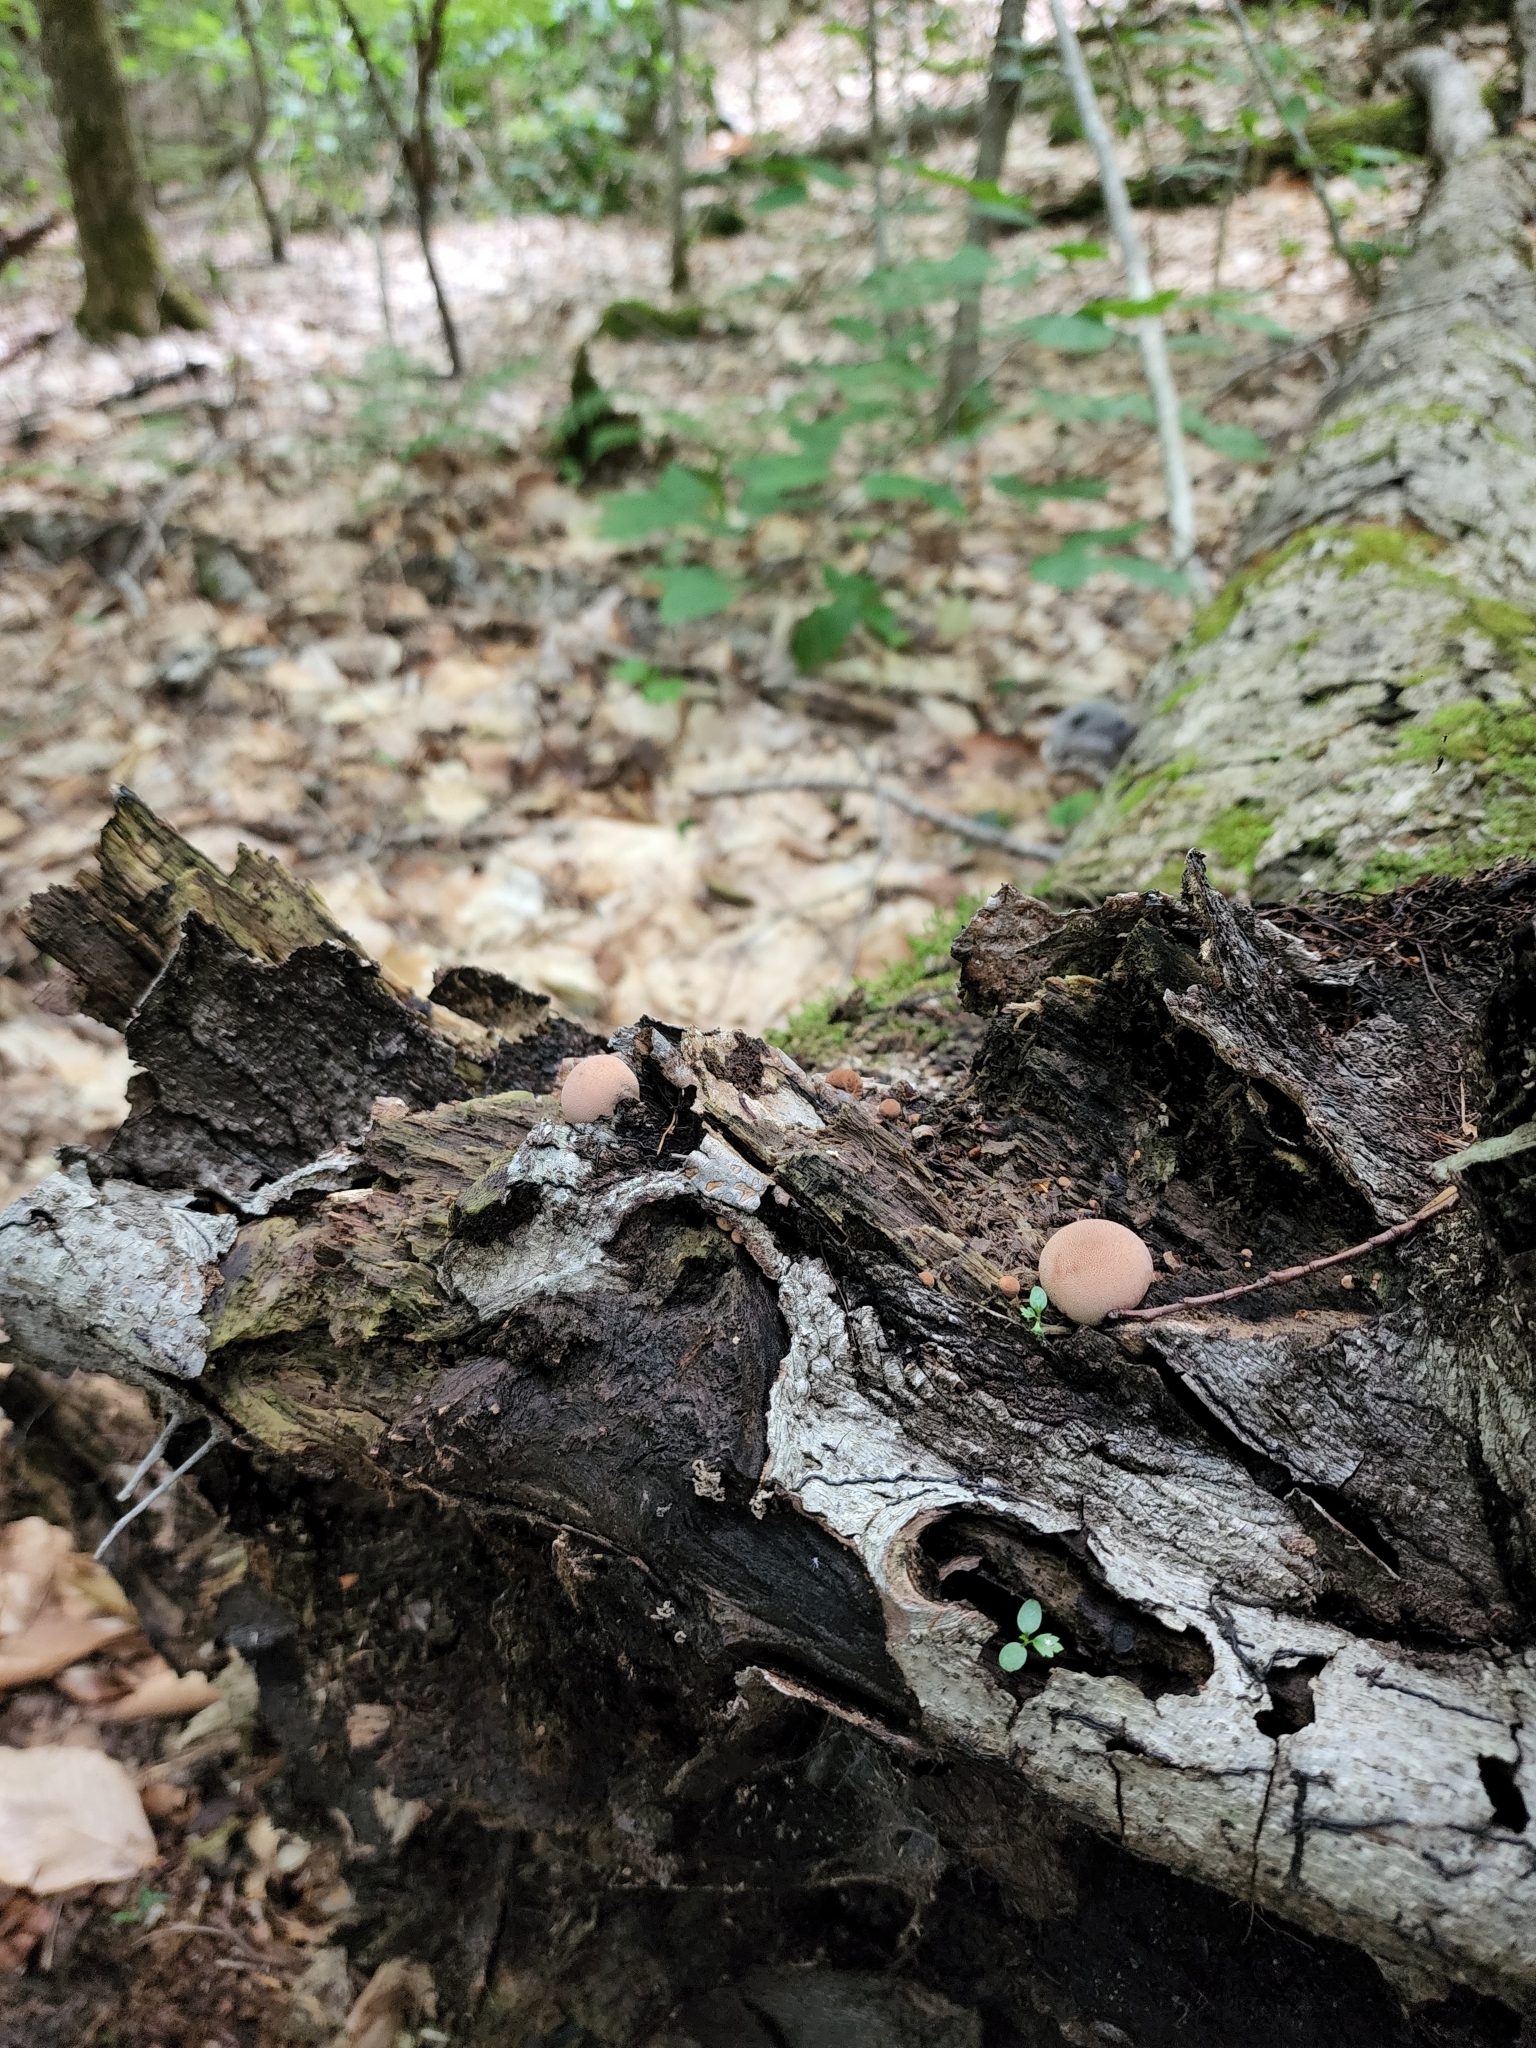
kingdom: Fungi
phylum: Basidiomycota
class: Agaricomycetes
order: Agaricales
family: Lycoperdaceae
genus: Lycoperdon
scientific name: Lycoperdon subincarnatum
